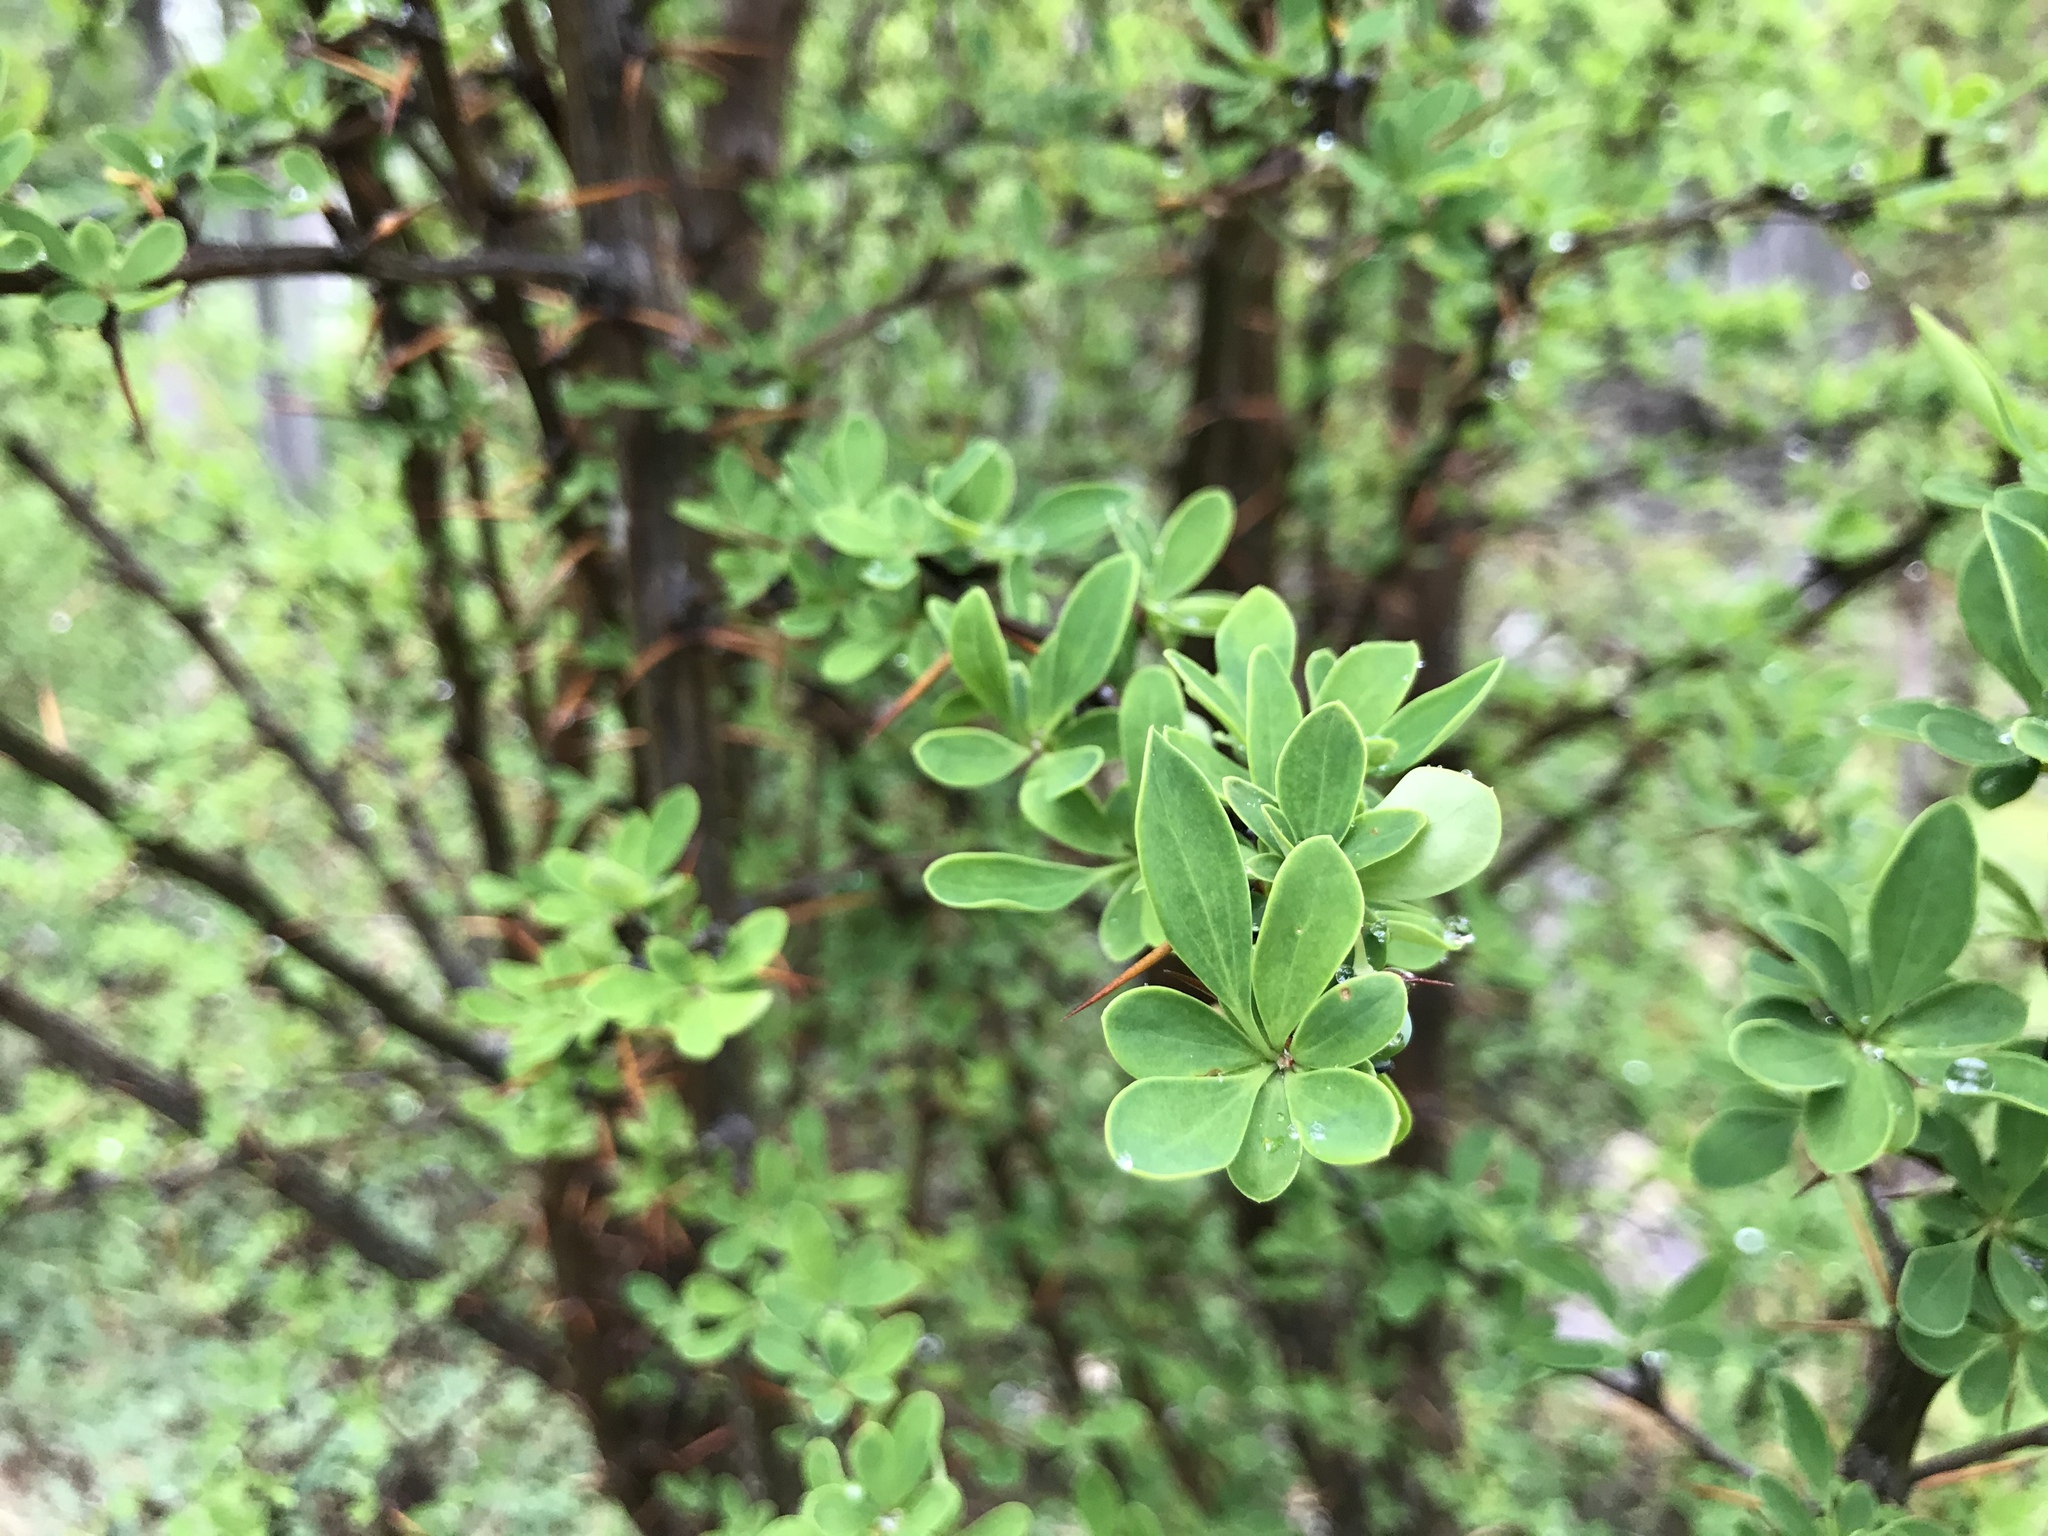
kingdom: Plantae
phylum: Tracheophyta
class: Magnoliopsida
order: Ranunculales
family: Berberidaceae
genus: Berberis
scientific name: Berberis microphylla
